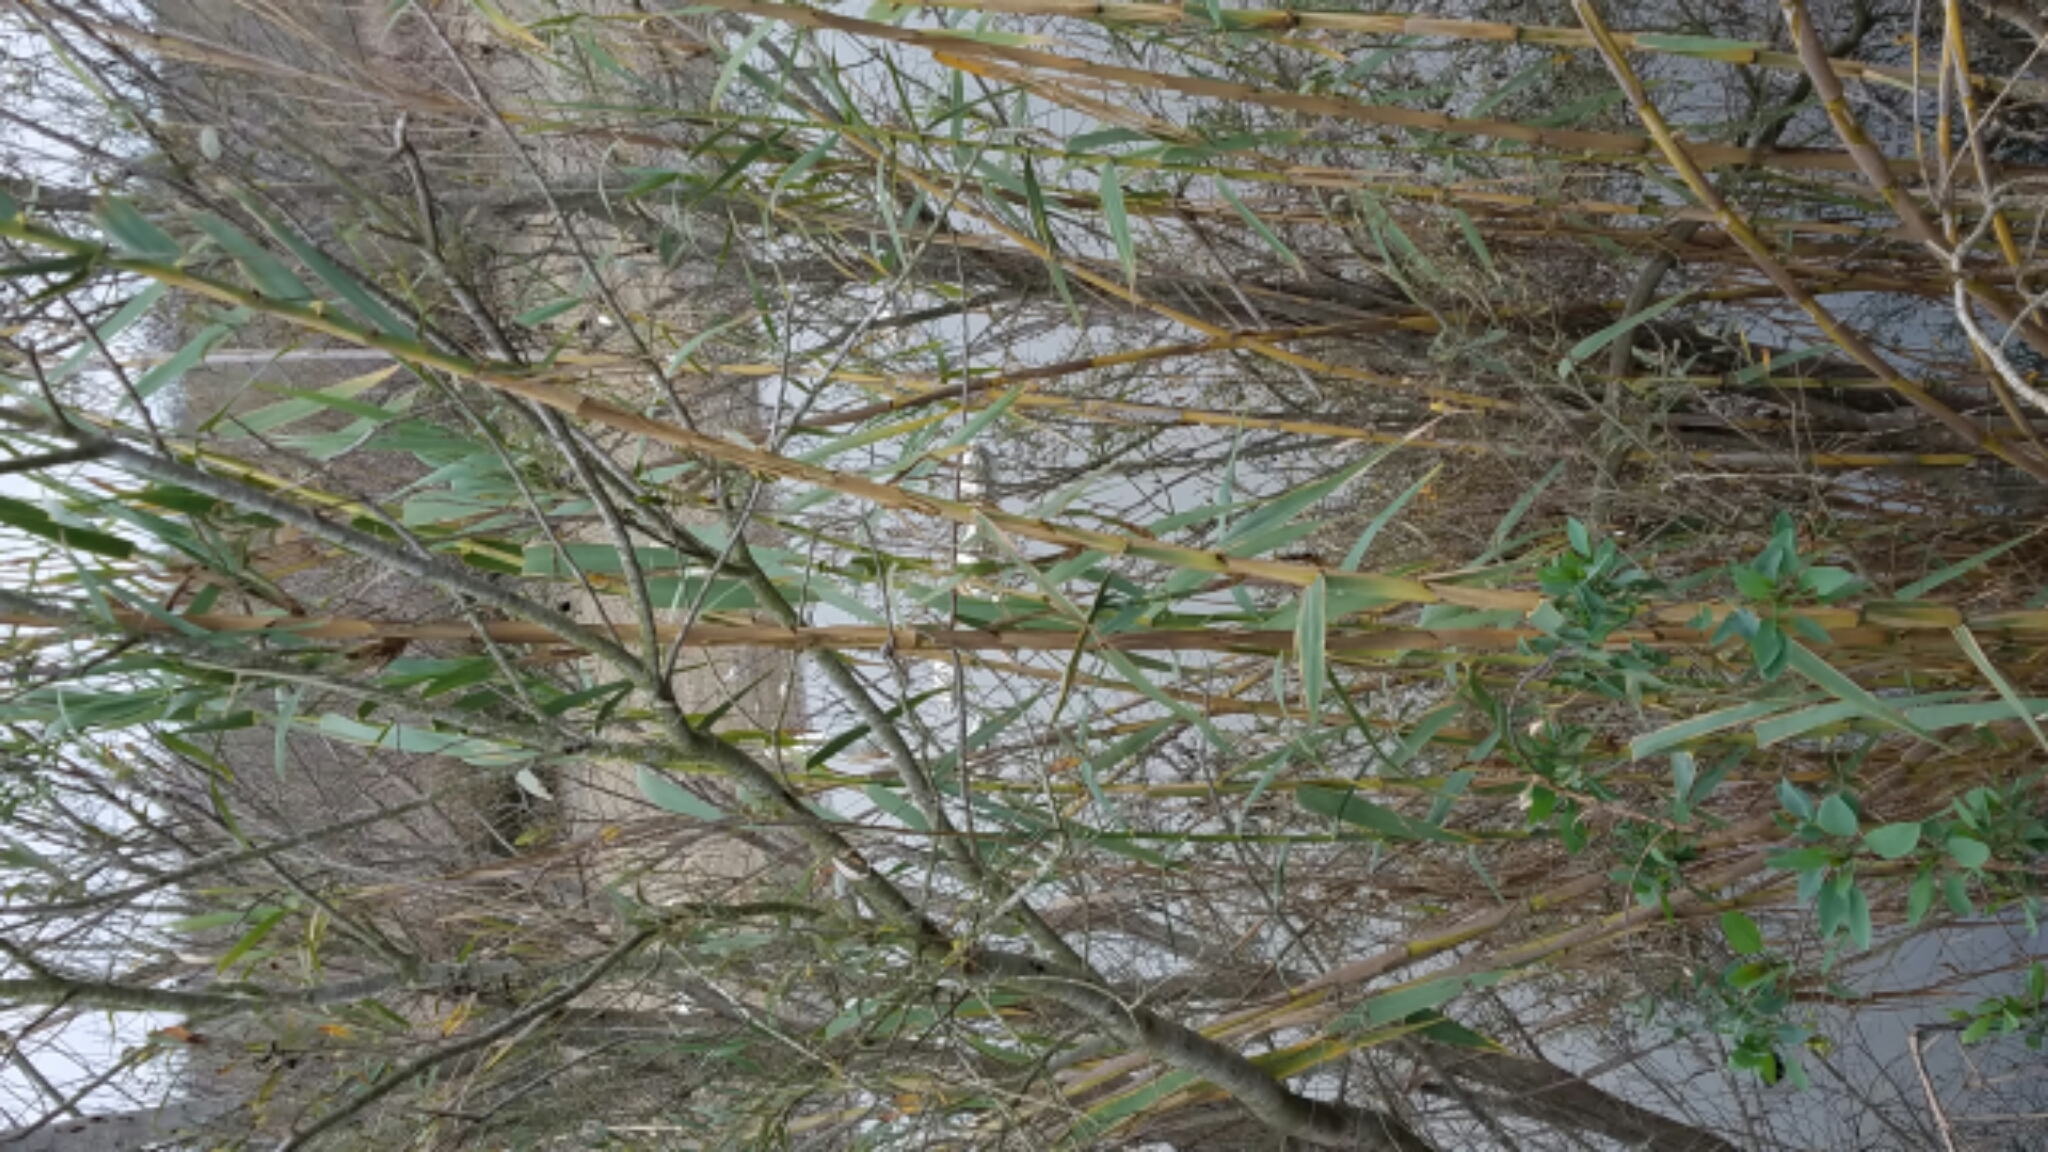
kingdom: Plantae
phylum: Tracheophyta
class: Liliopsida
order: Poales
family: Poaceae
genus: Arundo
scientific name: Arundo donax
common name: Giant reed
